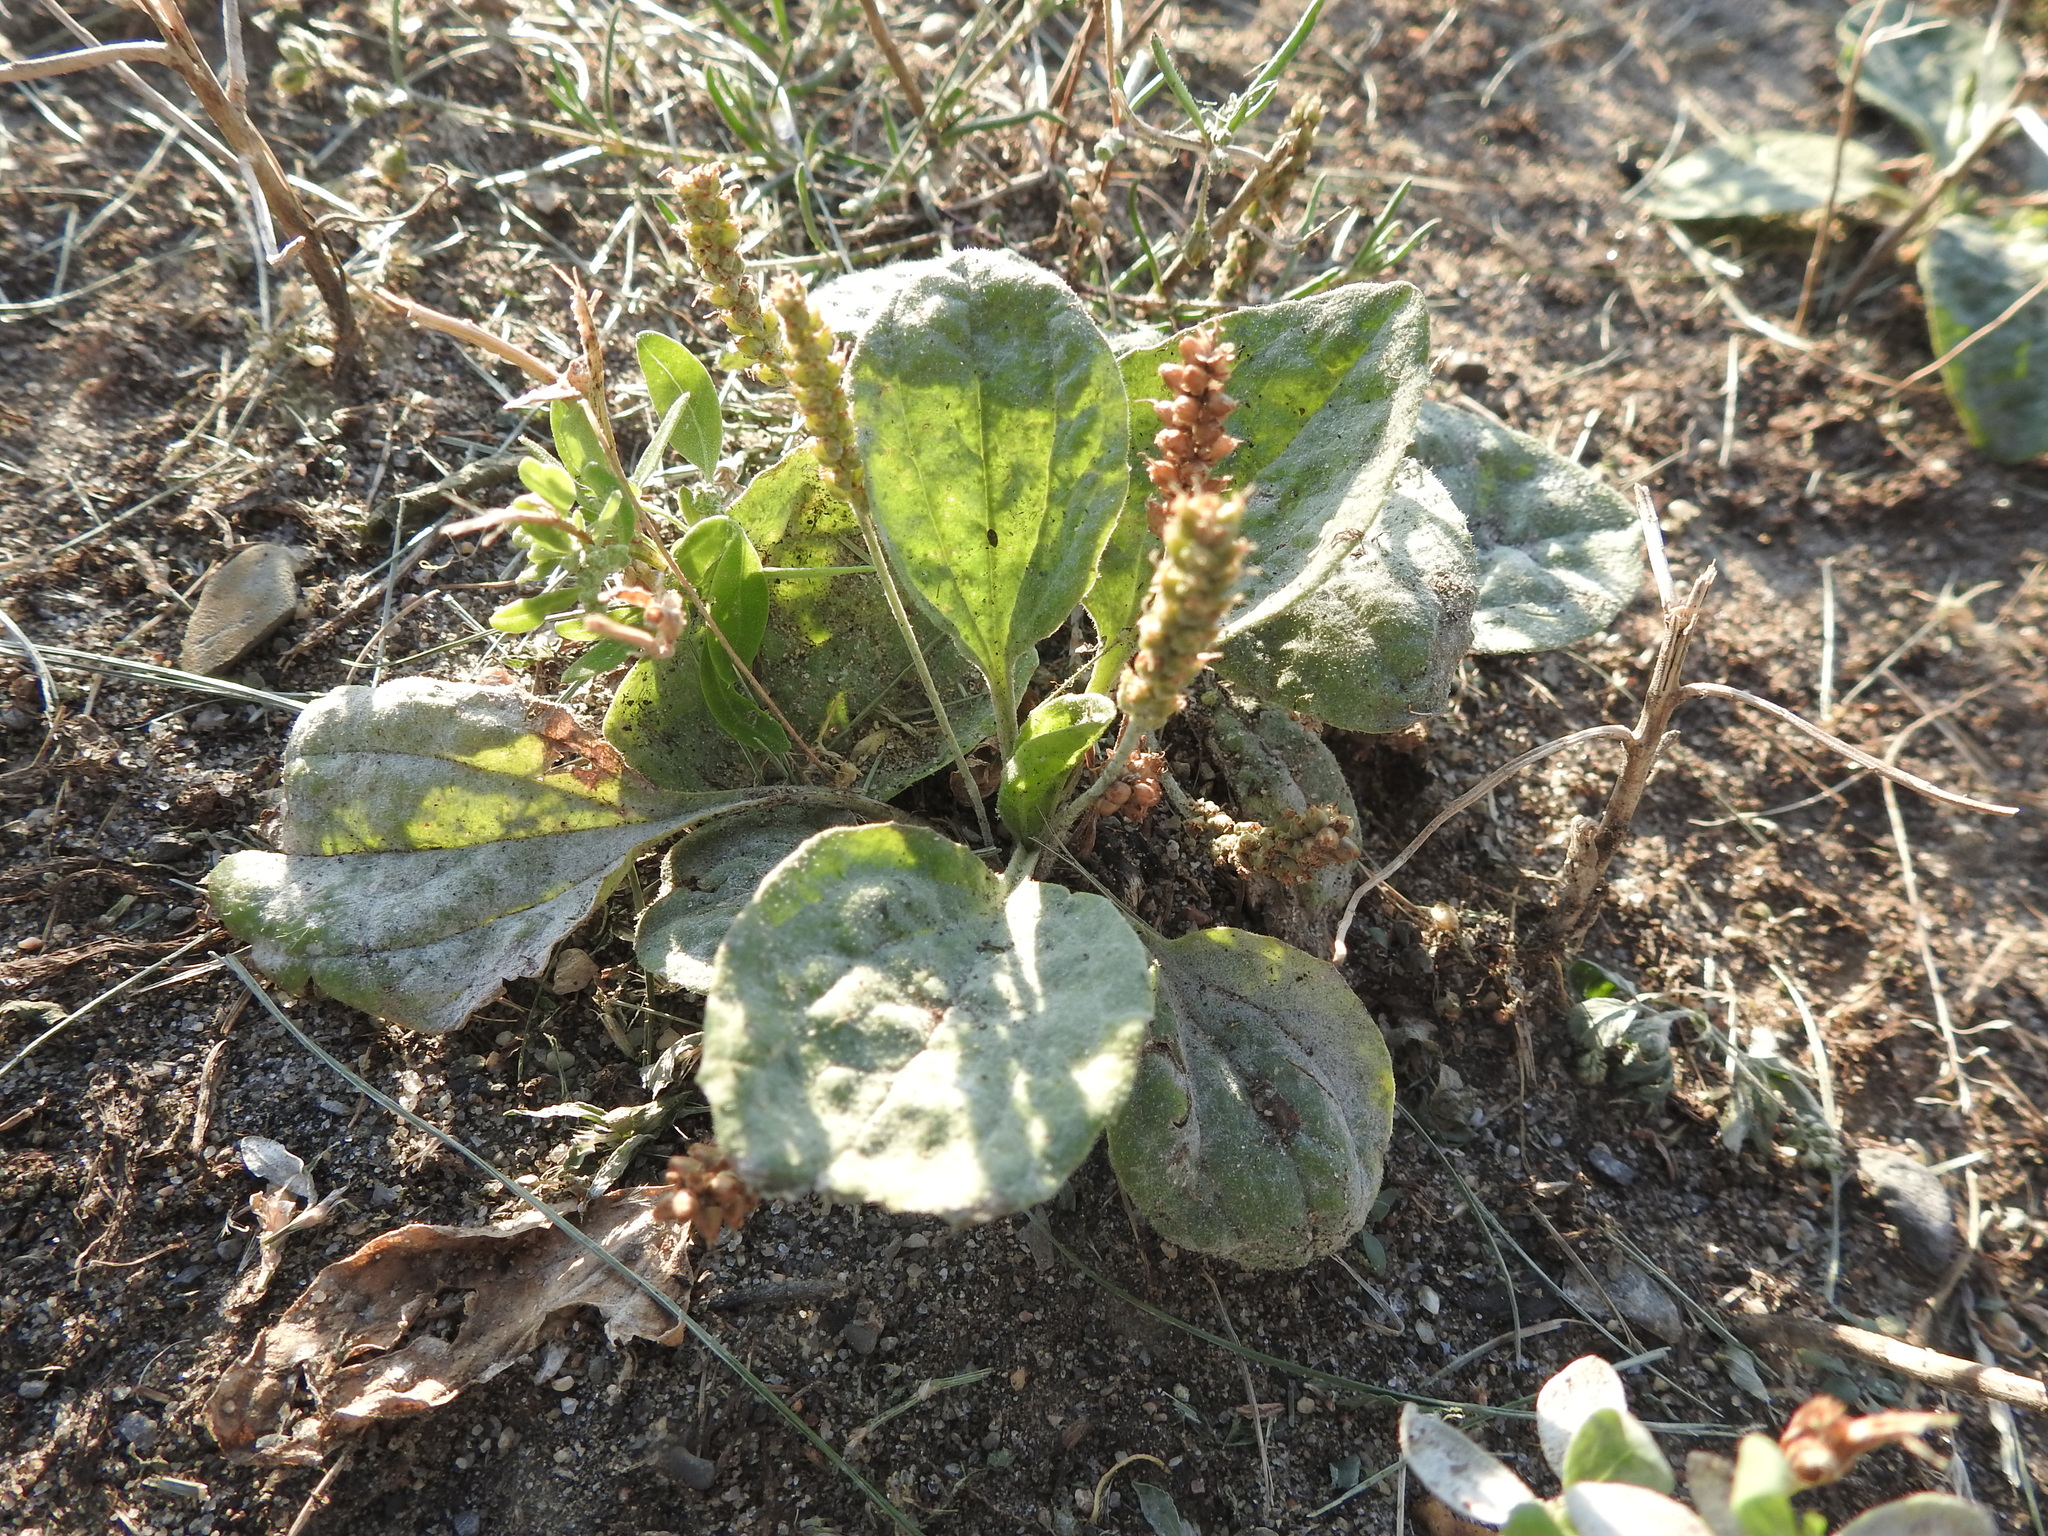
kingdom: Plantae
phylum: Tracheophyta
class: Magnoliopsida
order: Lamiales
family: Plantaginaceae
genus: Plantago
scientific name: Plantago major
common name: Common plantain
